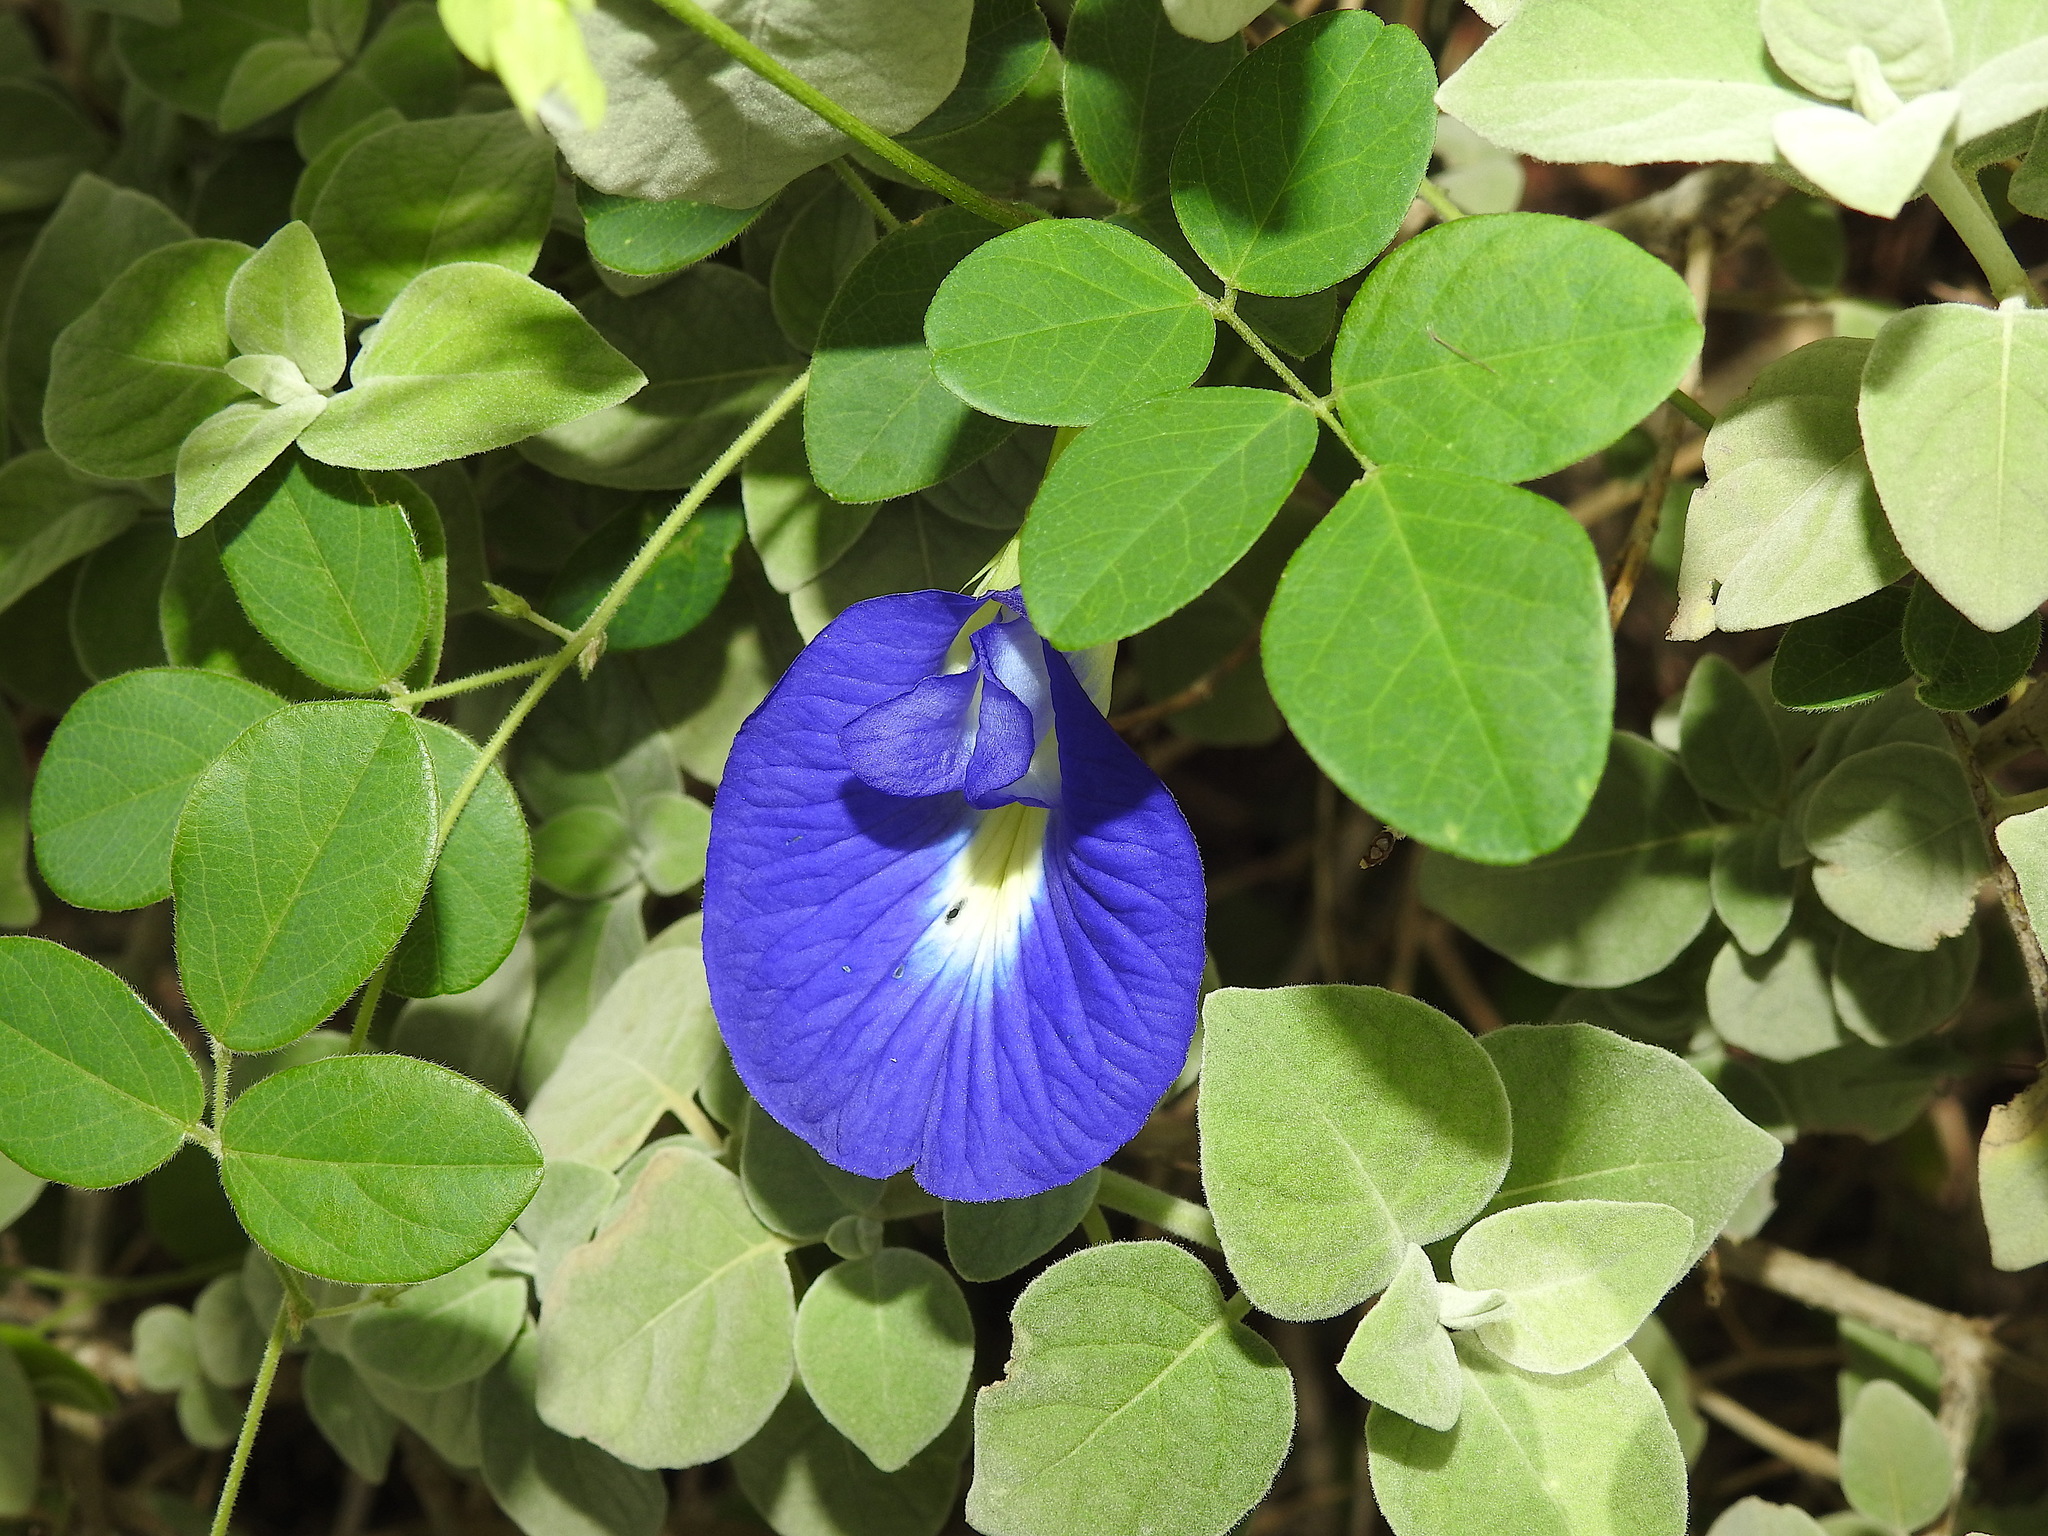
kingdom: Plantae
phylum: Tracheophyta
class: Magnoliopsida
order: Fabales
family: Fabaceae
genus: Clitoria
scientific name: Clitoria ternatea
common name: Asian pigeonwings
